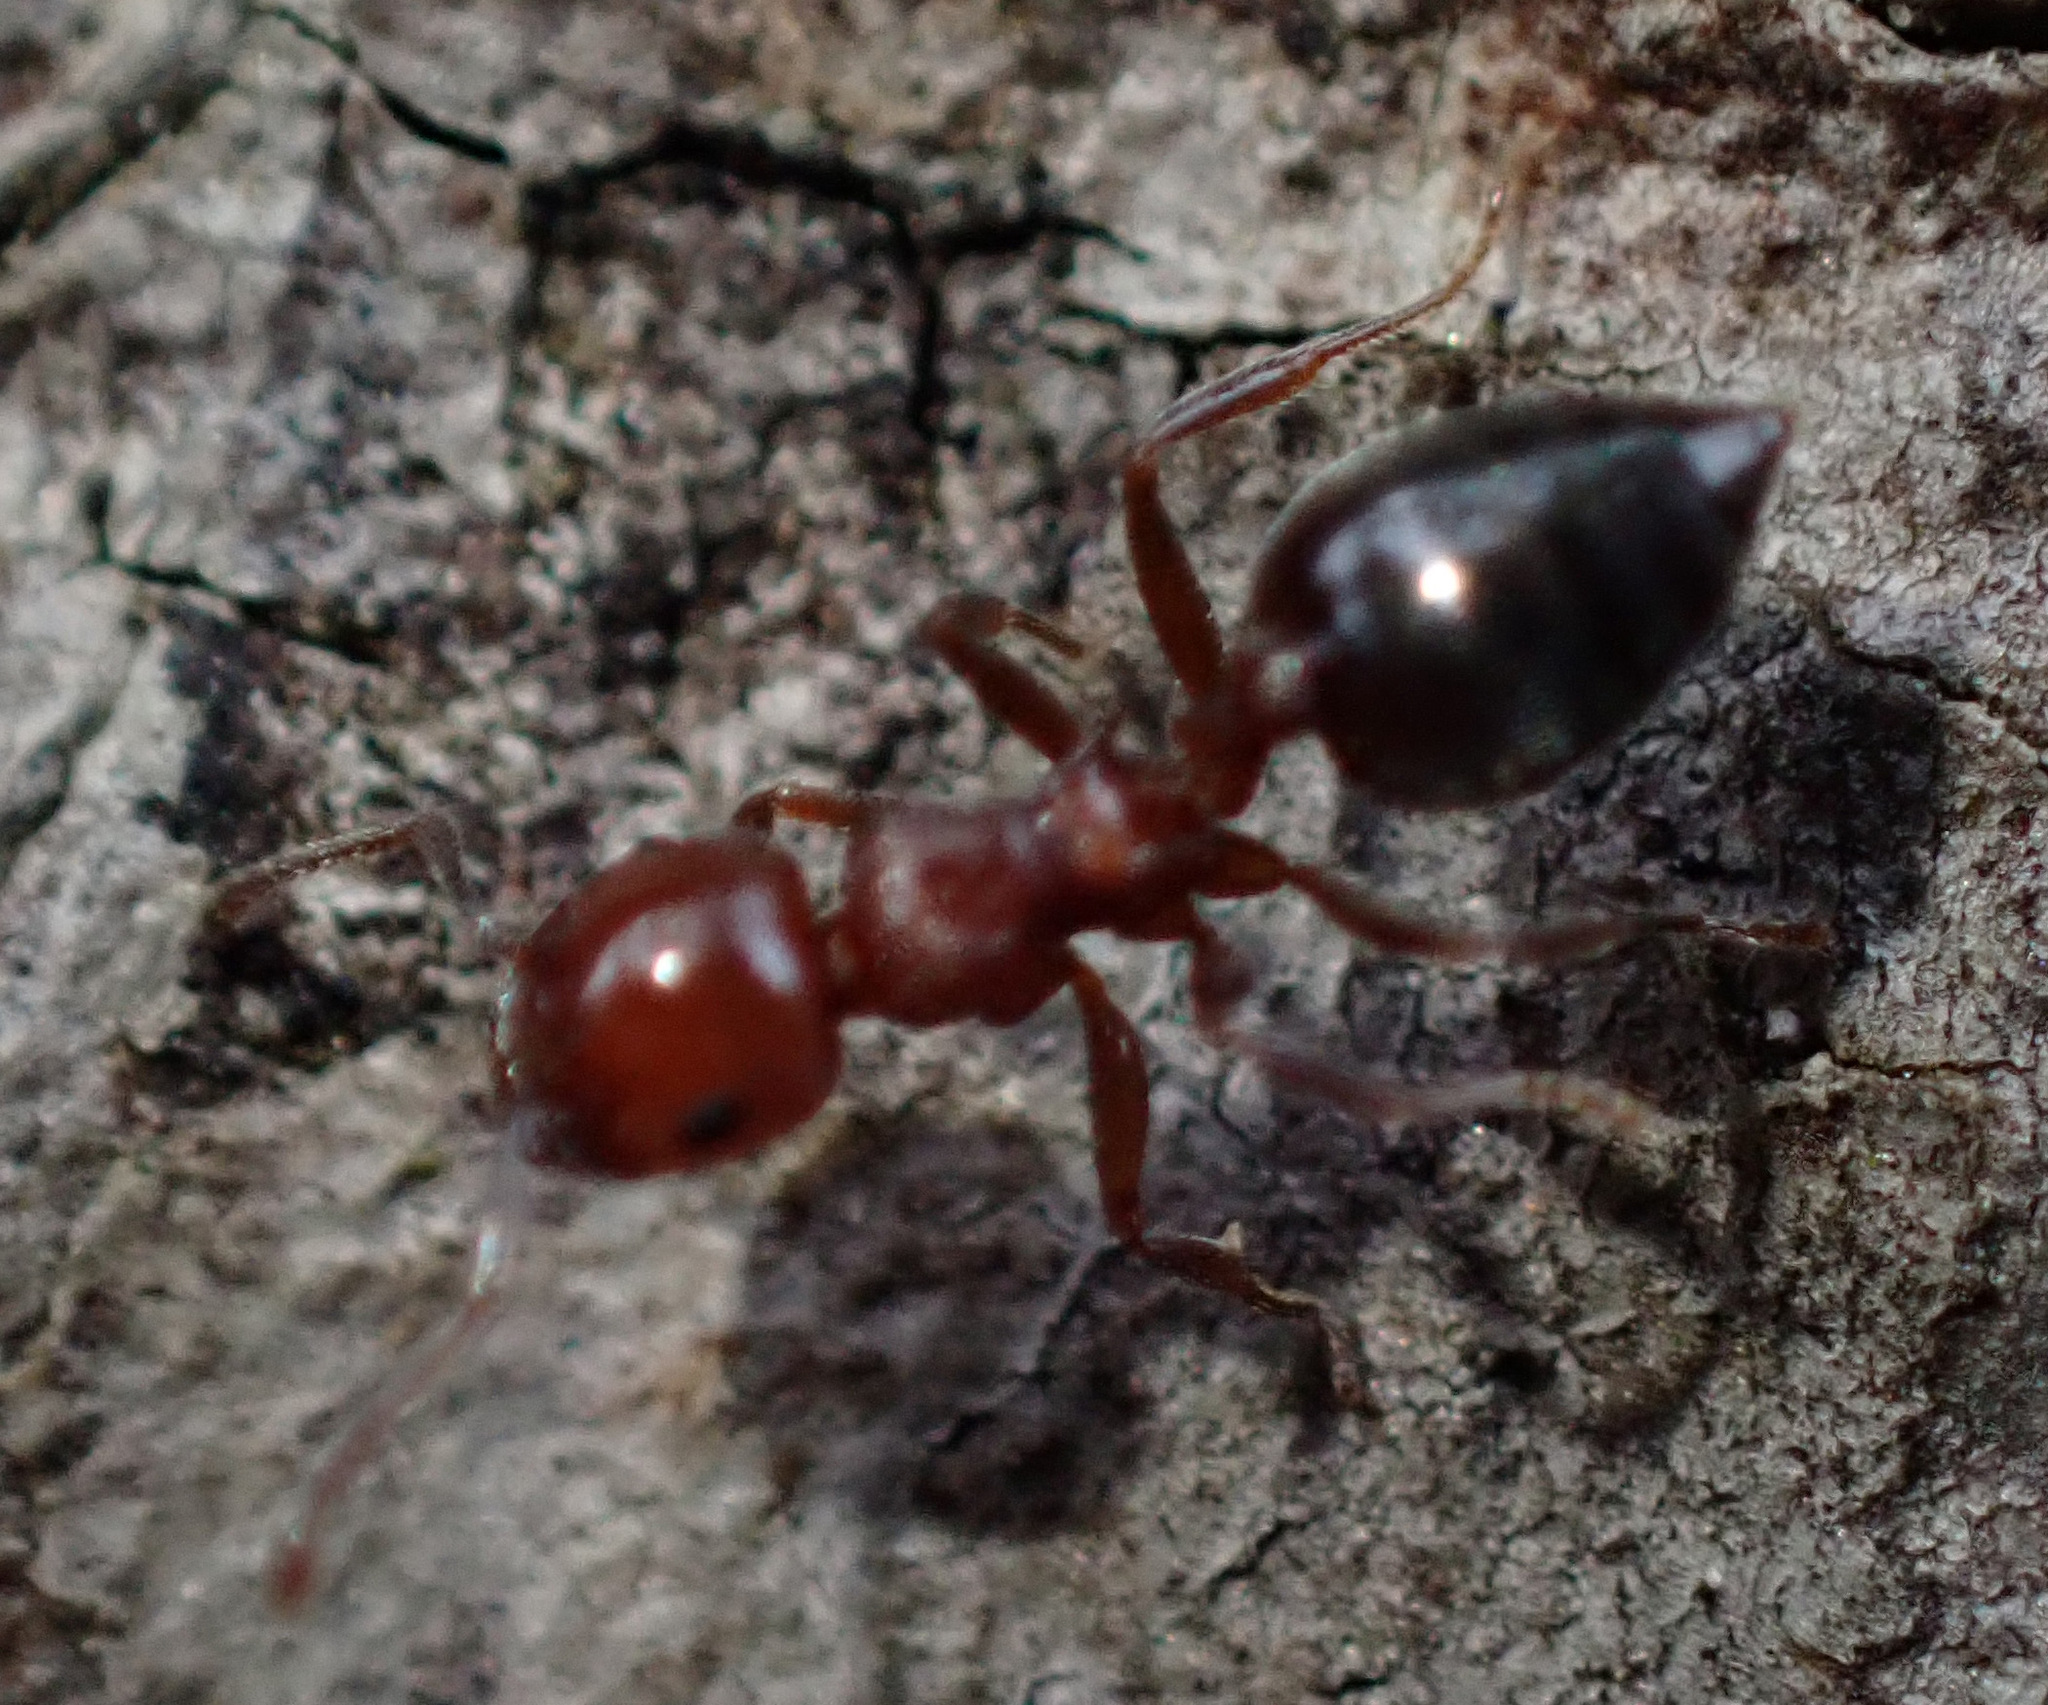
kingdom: Animalia
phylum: Arthropoda
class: Insecta
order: Hymenoptera
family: Formicidae
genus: Crematogaster
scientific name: Crematogaster schmidti
